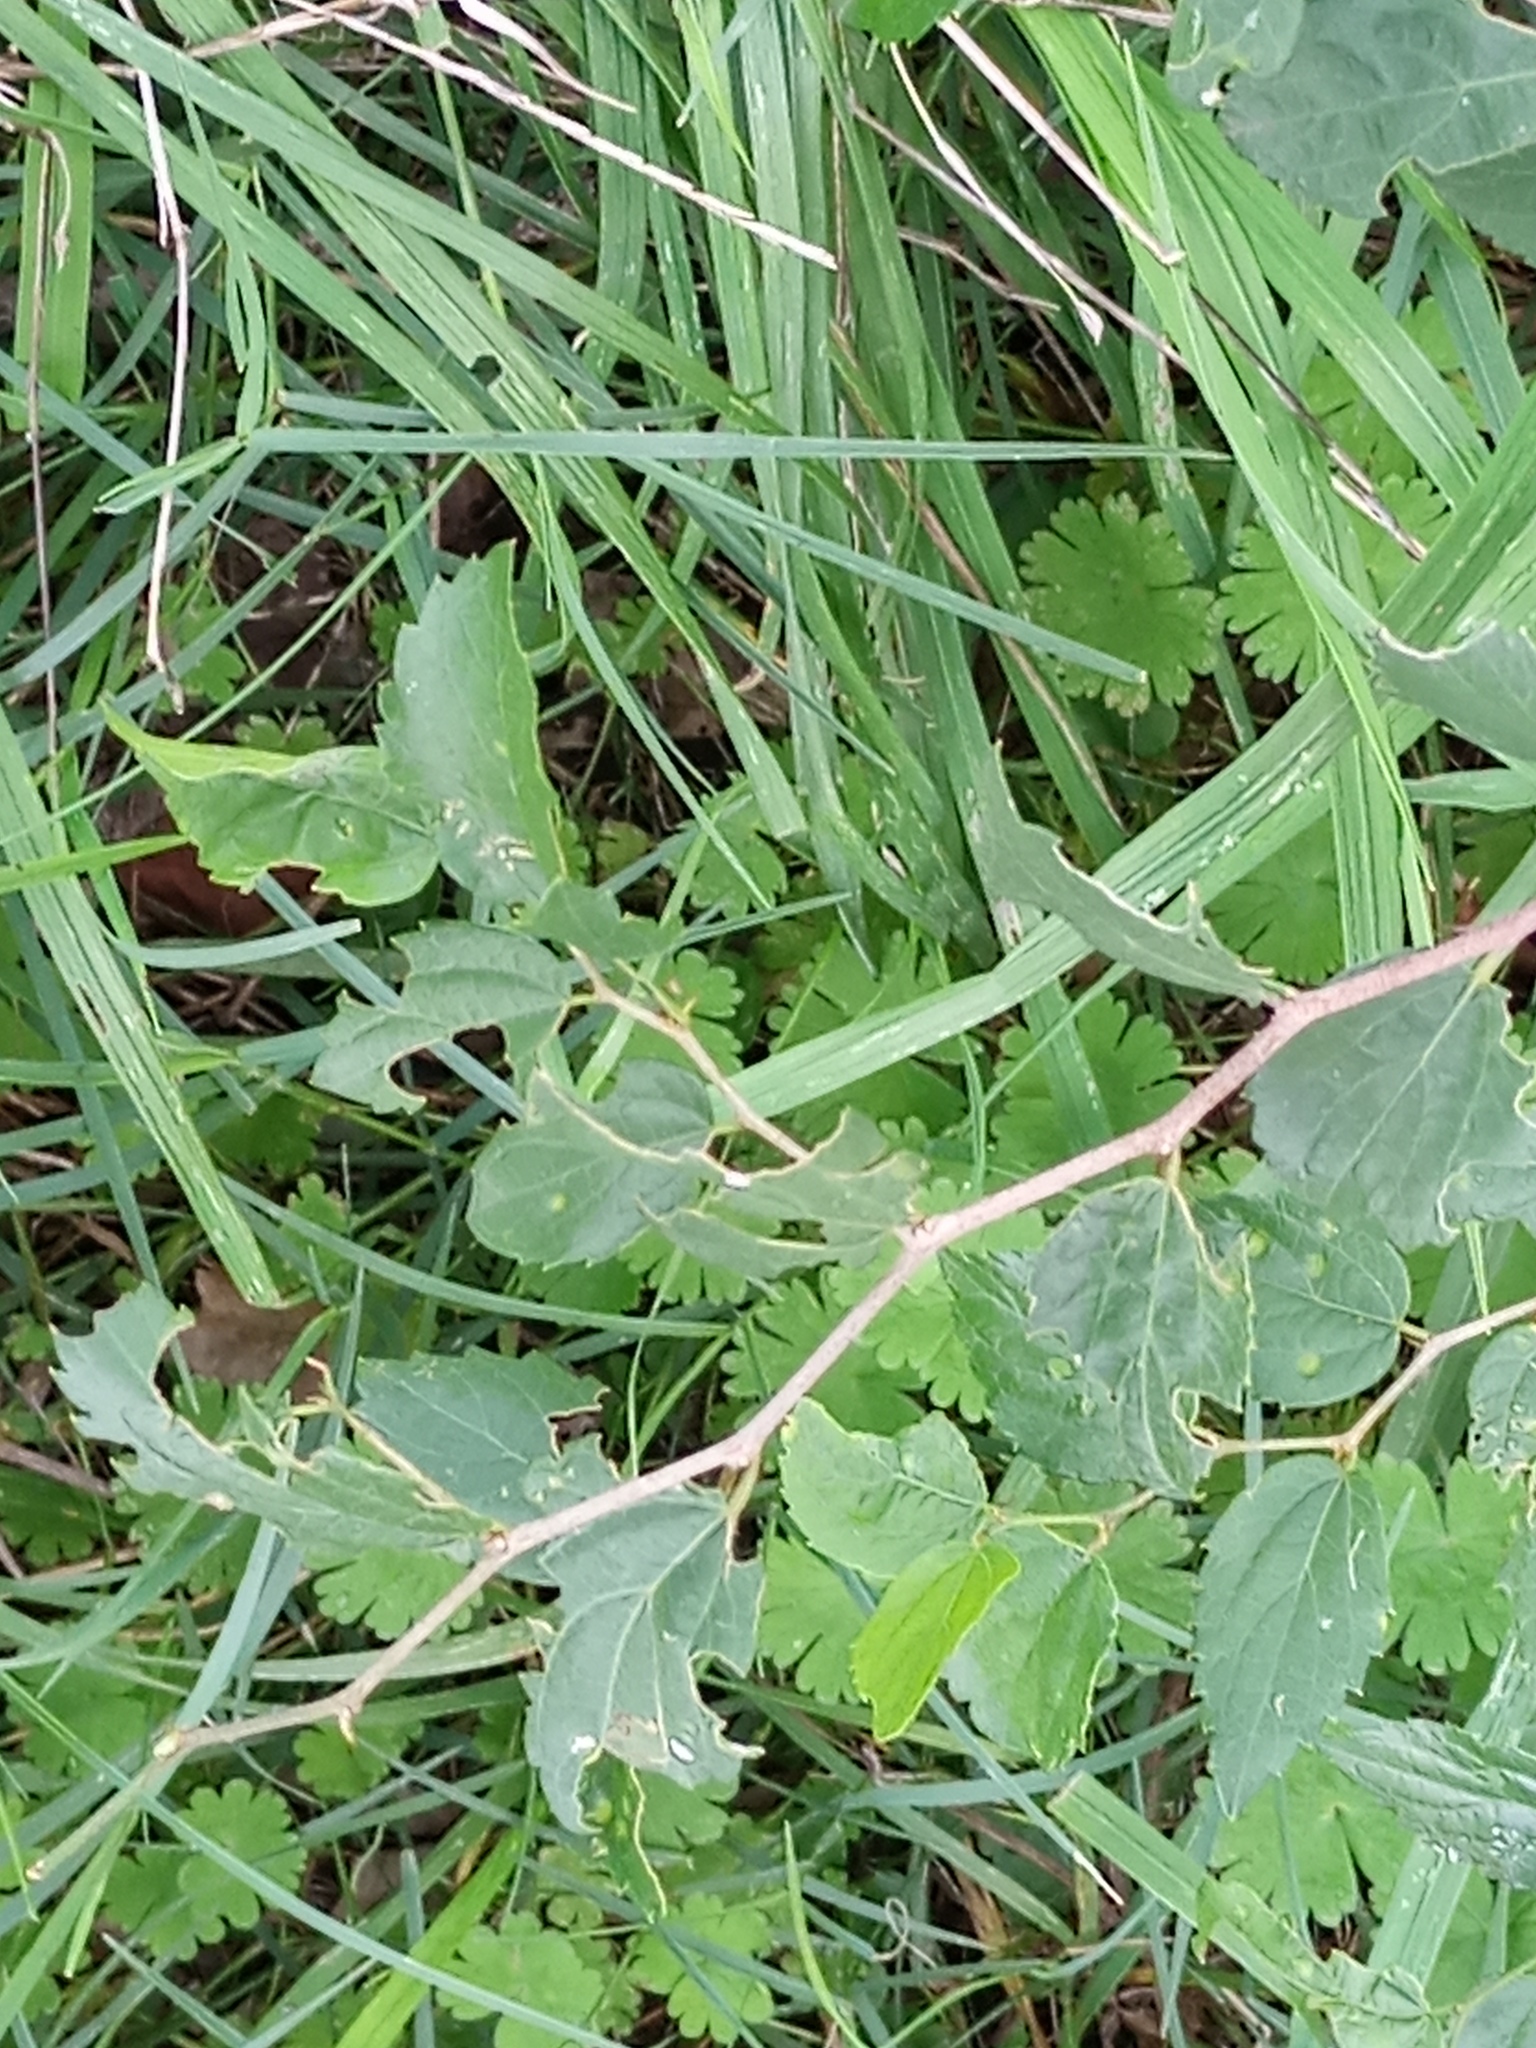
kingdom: Plantae
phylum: Tracheophyta
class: Magnoliopsida
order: Rosales
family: Cannabaceae
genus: Celtis
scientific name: Celtis tala
